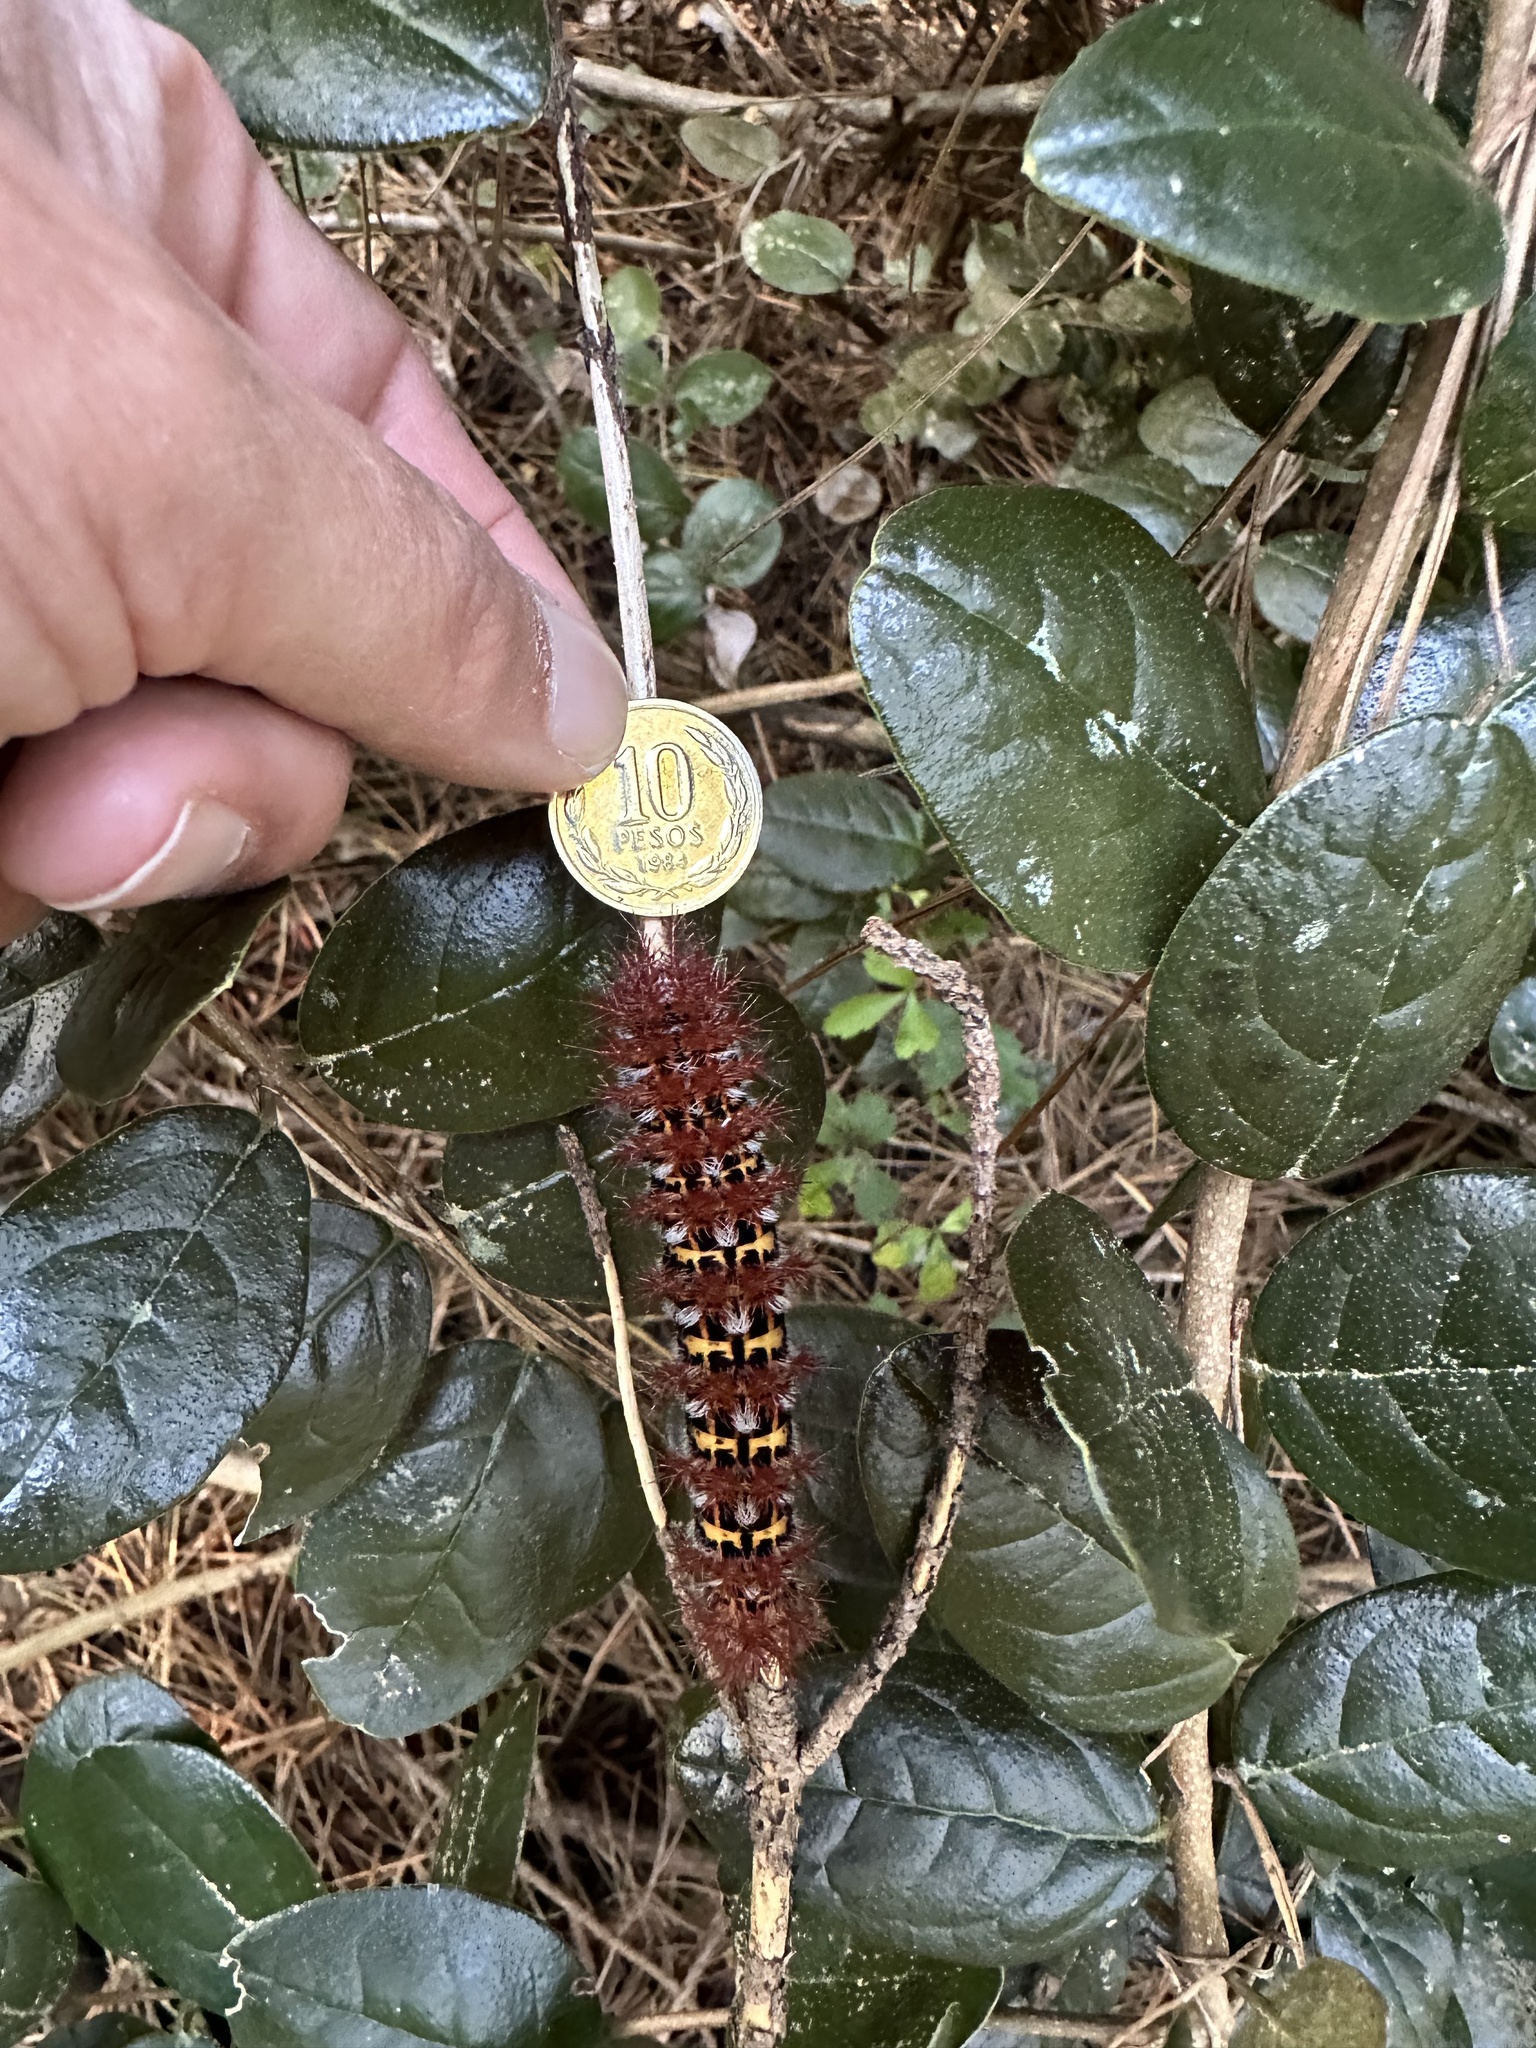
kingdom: Animalia
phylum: Arthropoda
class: Insecta
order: Lepidoptera
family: Saturniidae
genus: Ormiscodes
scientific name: Ormiscodes cinnamomea
